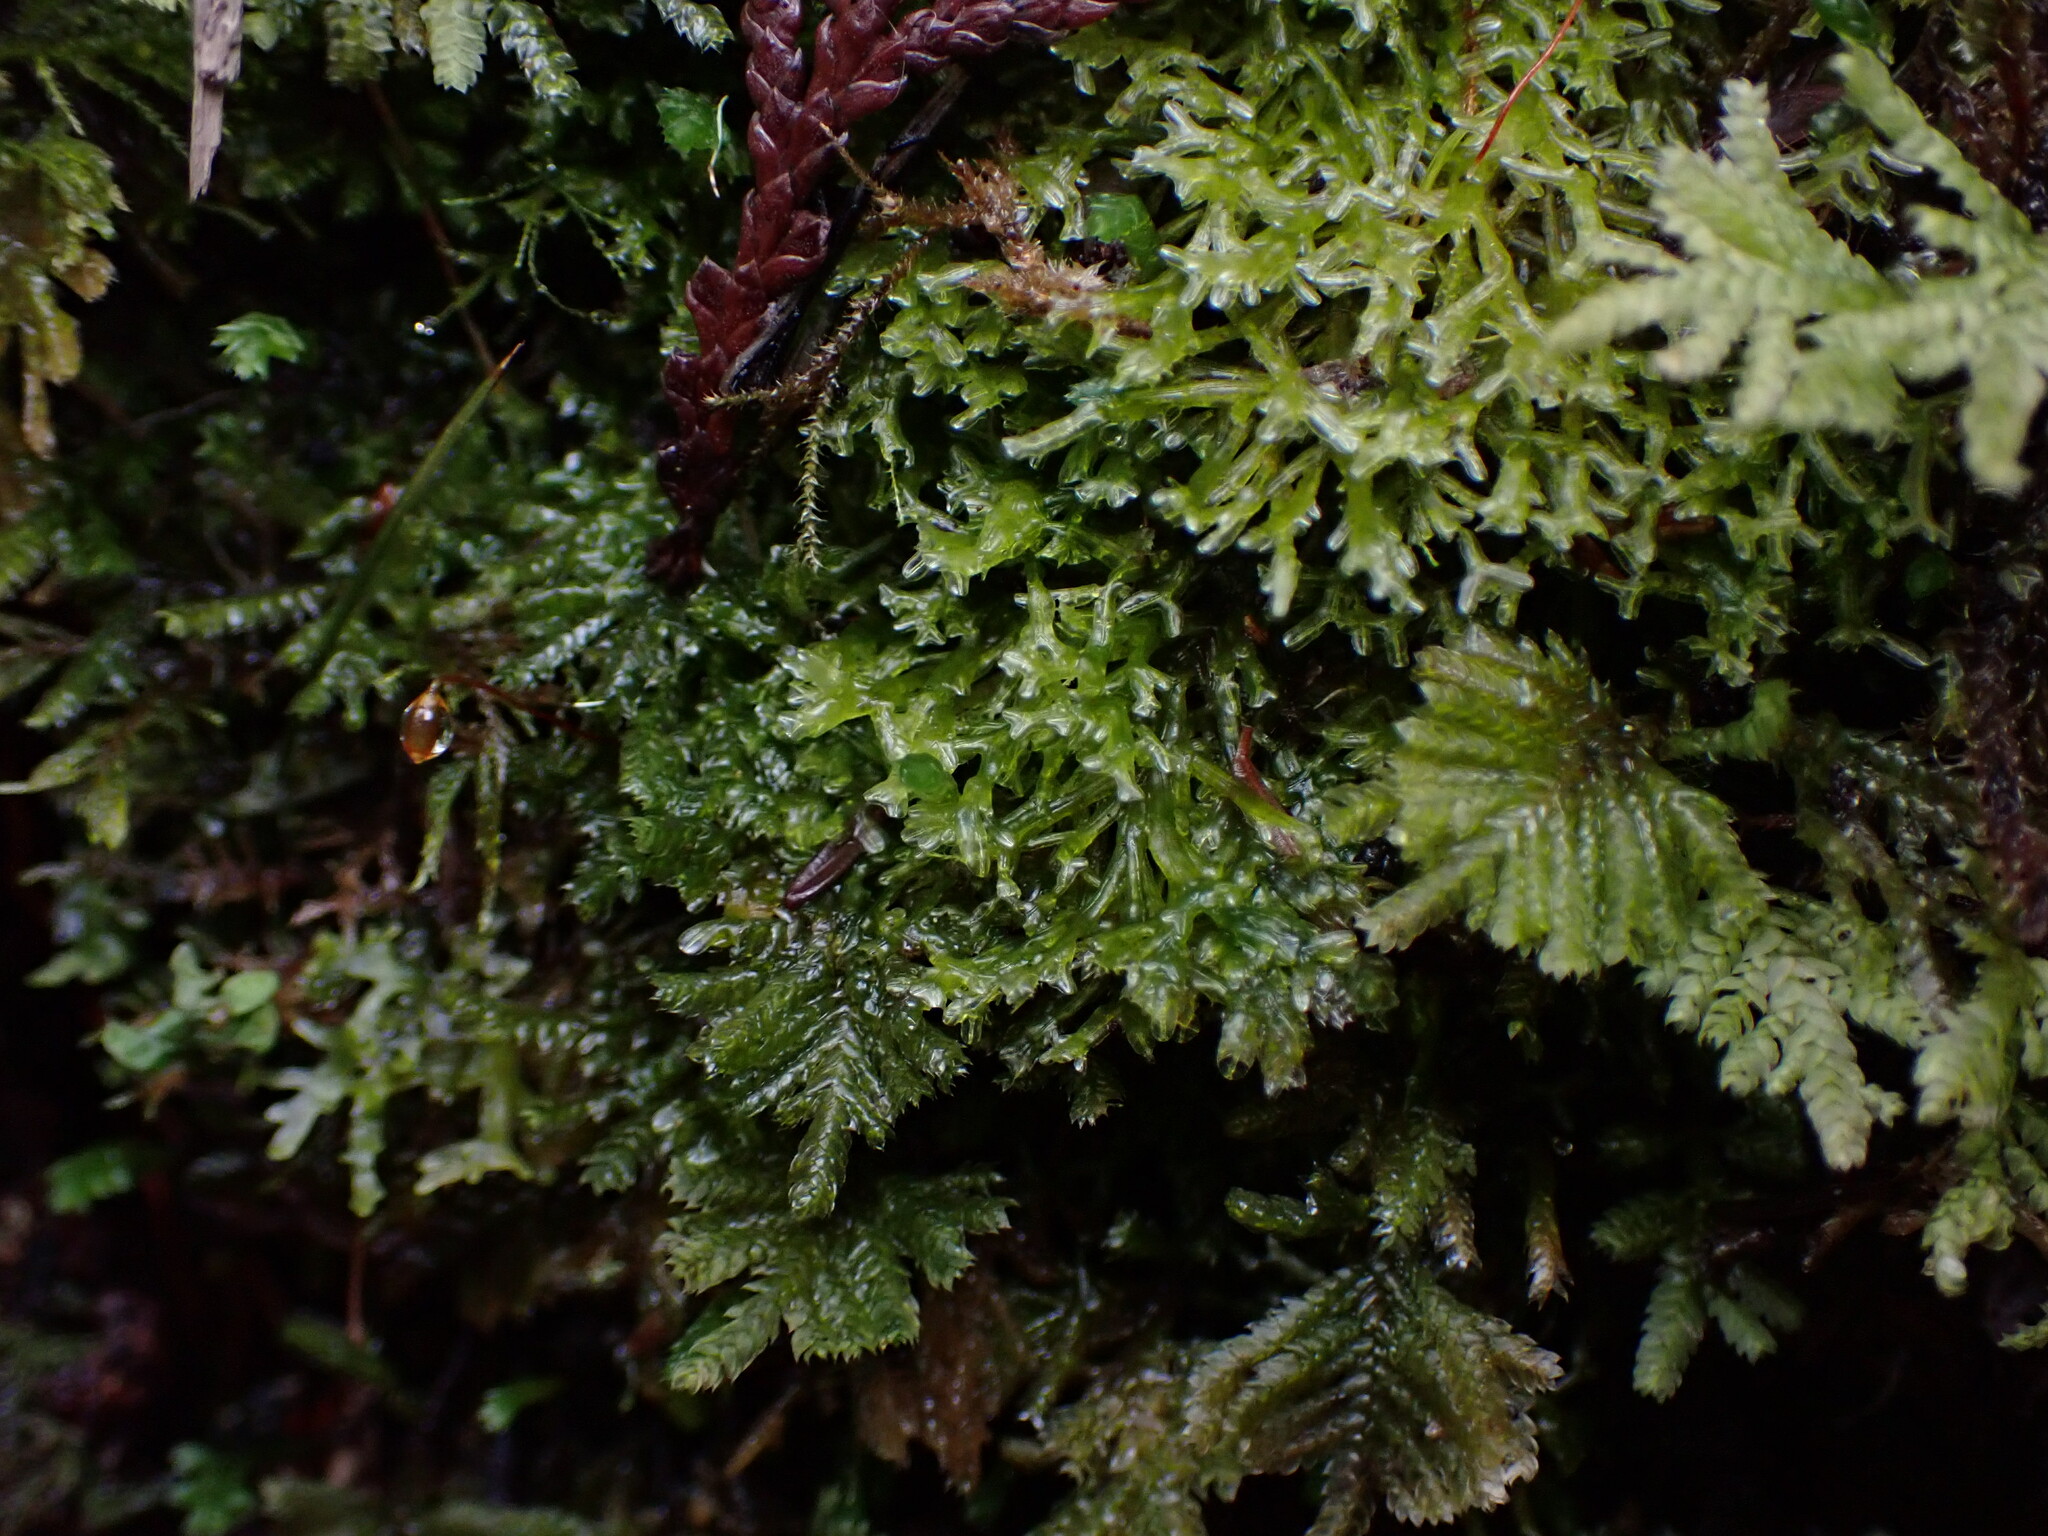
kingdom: Plantae
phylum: Bryophyta
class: Bryopsida
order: Hypopterygiales
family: Hypopterygiaceae
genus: Hypopterygium
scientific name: Hypopterygium flavolimbatum
